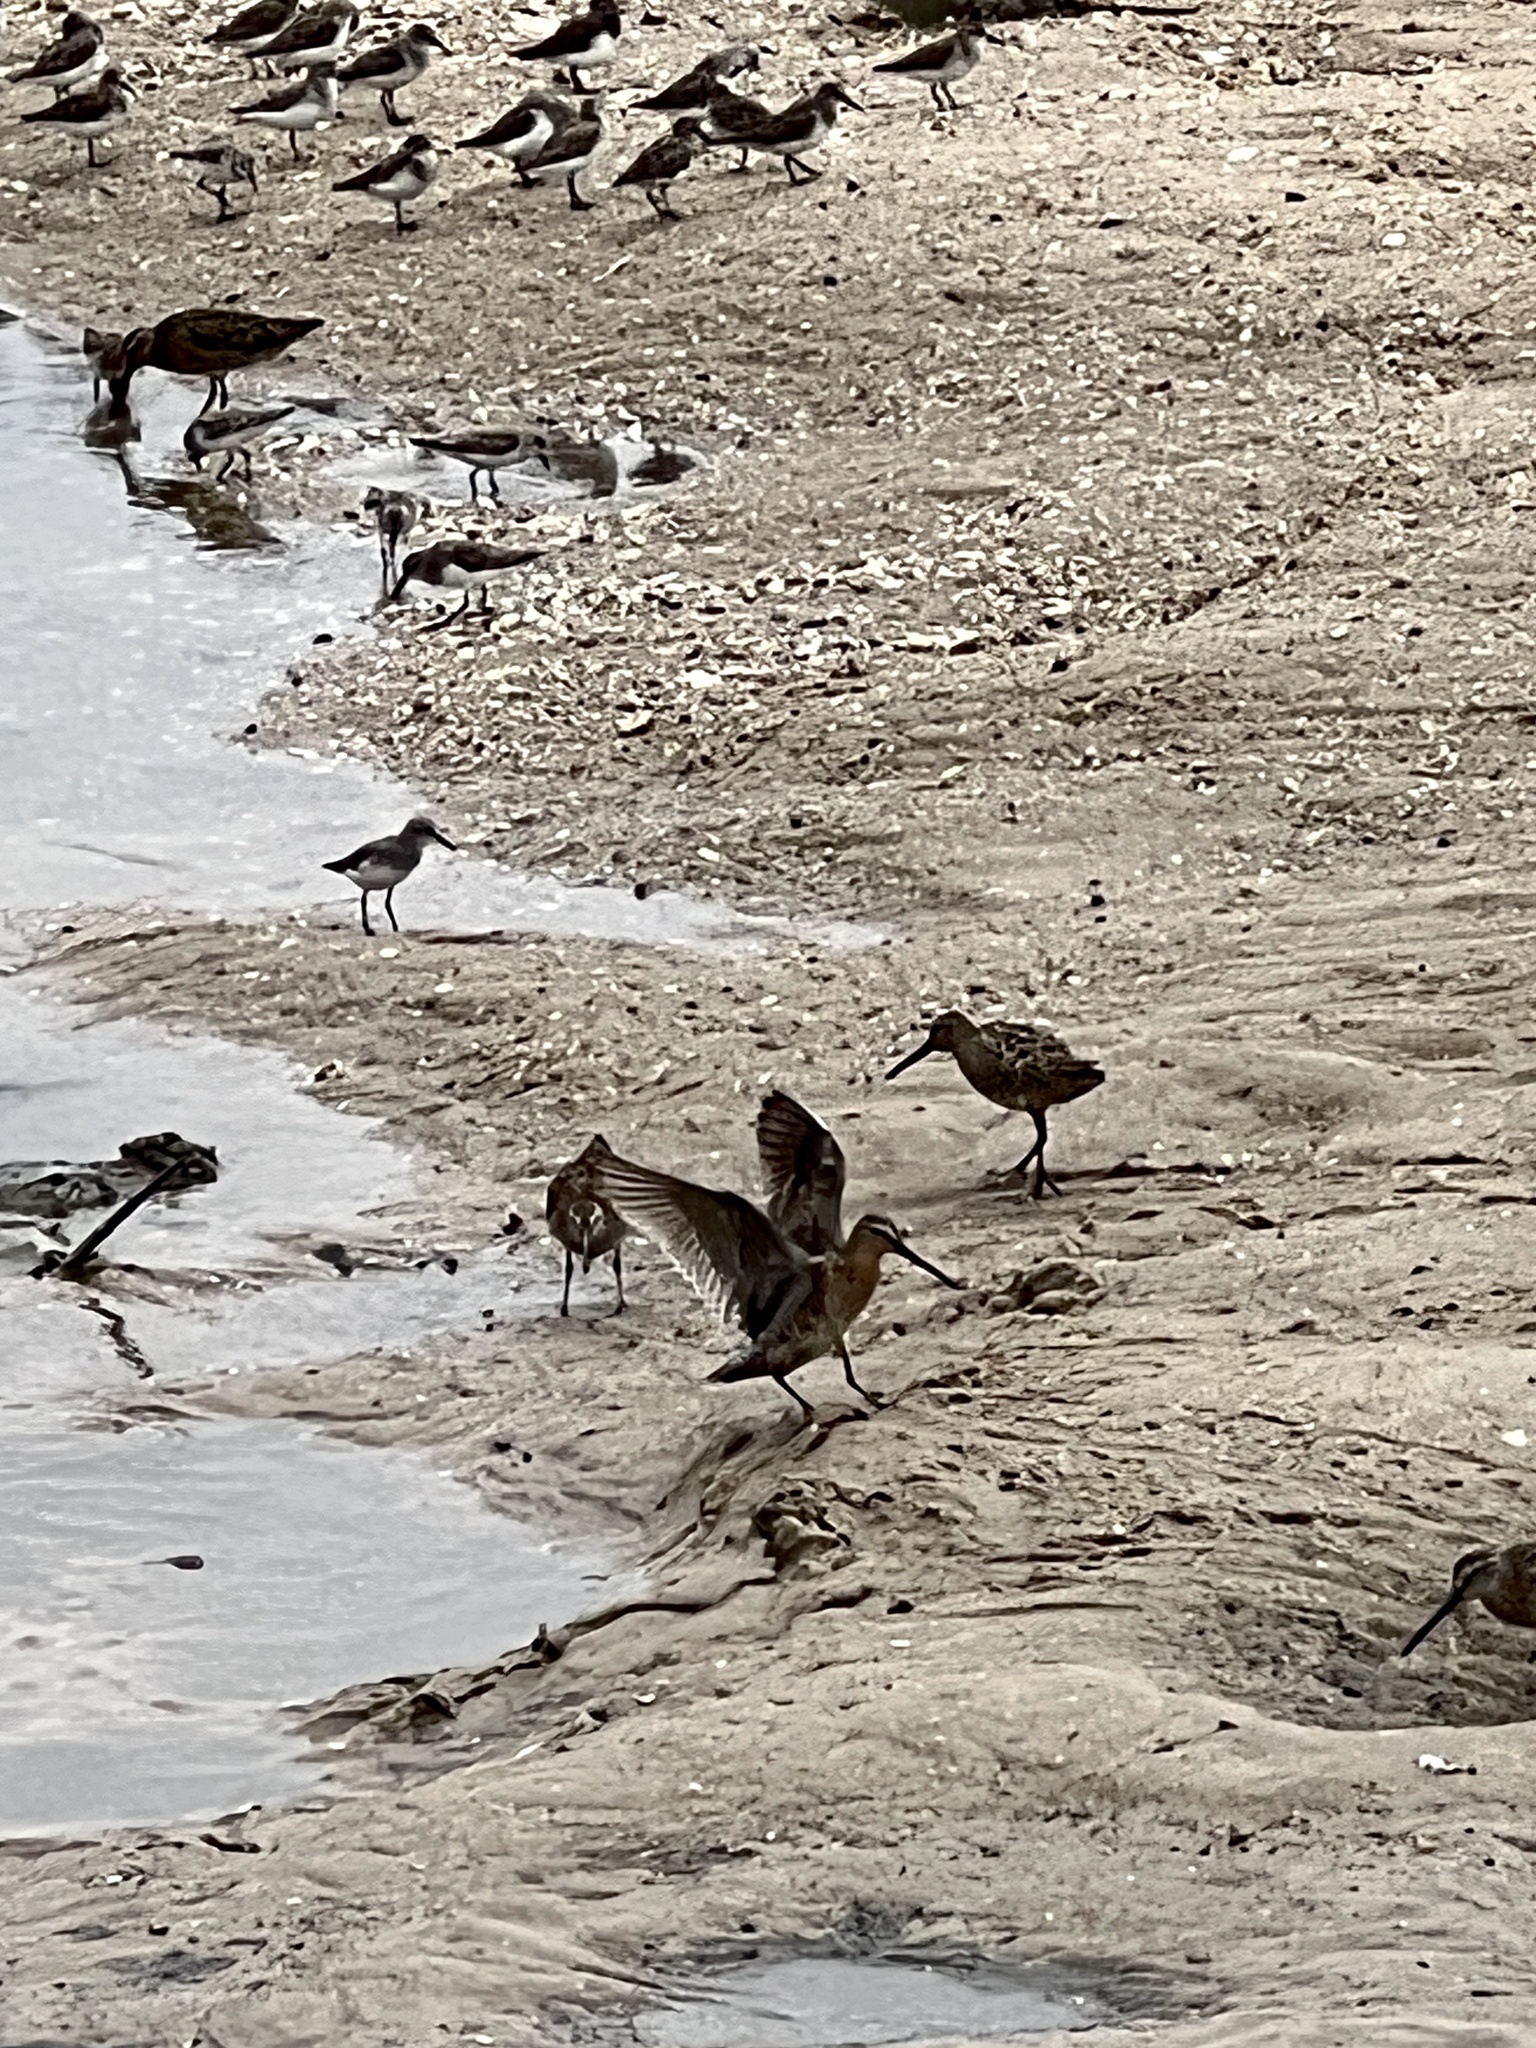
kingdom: Animalia
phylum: Chordata
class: Aves
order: Charadriiformes
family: Scolopacidae
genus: Limnodromus
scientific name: Limnodromus
